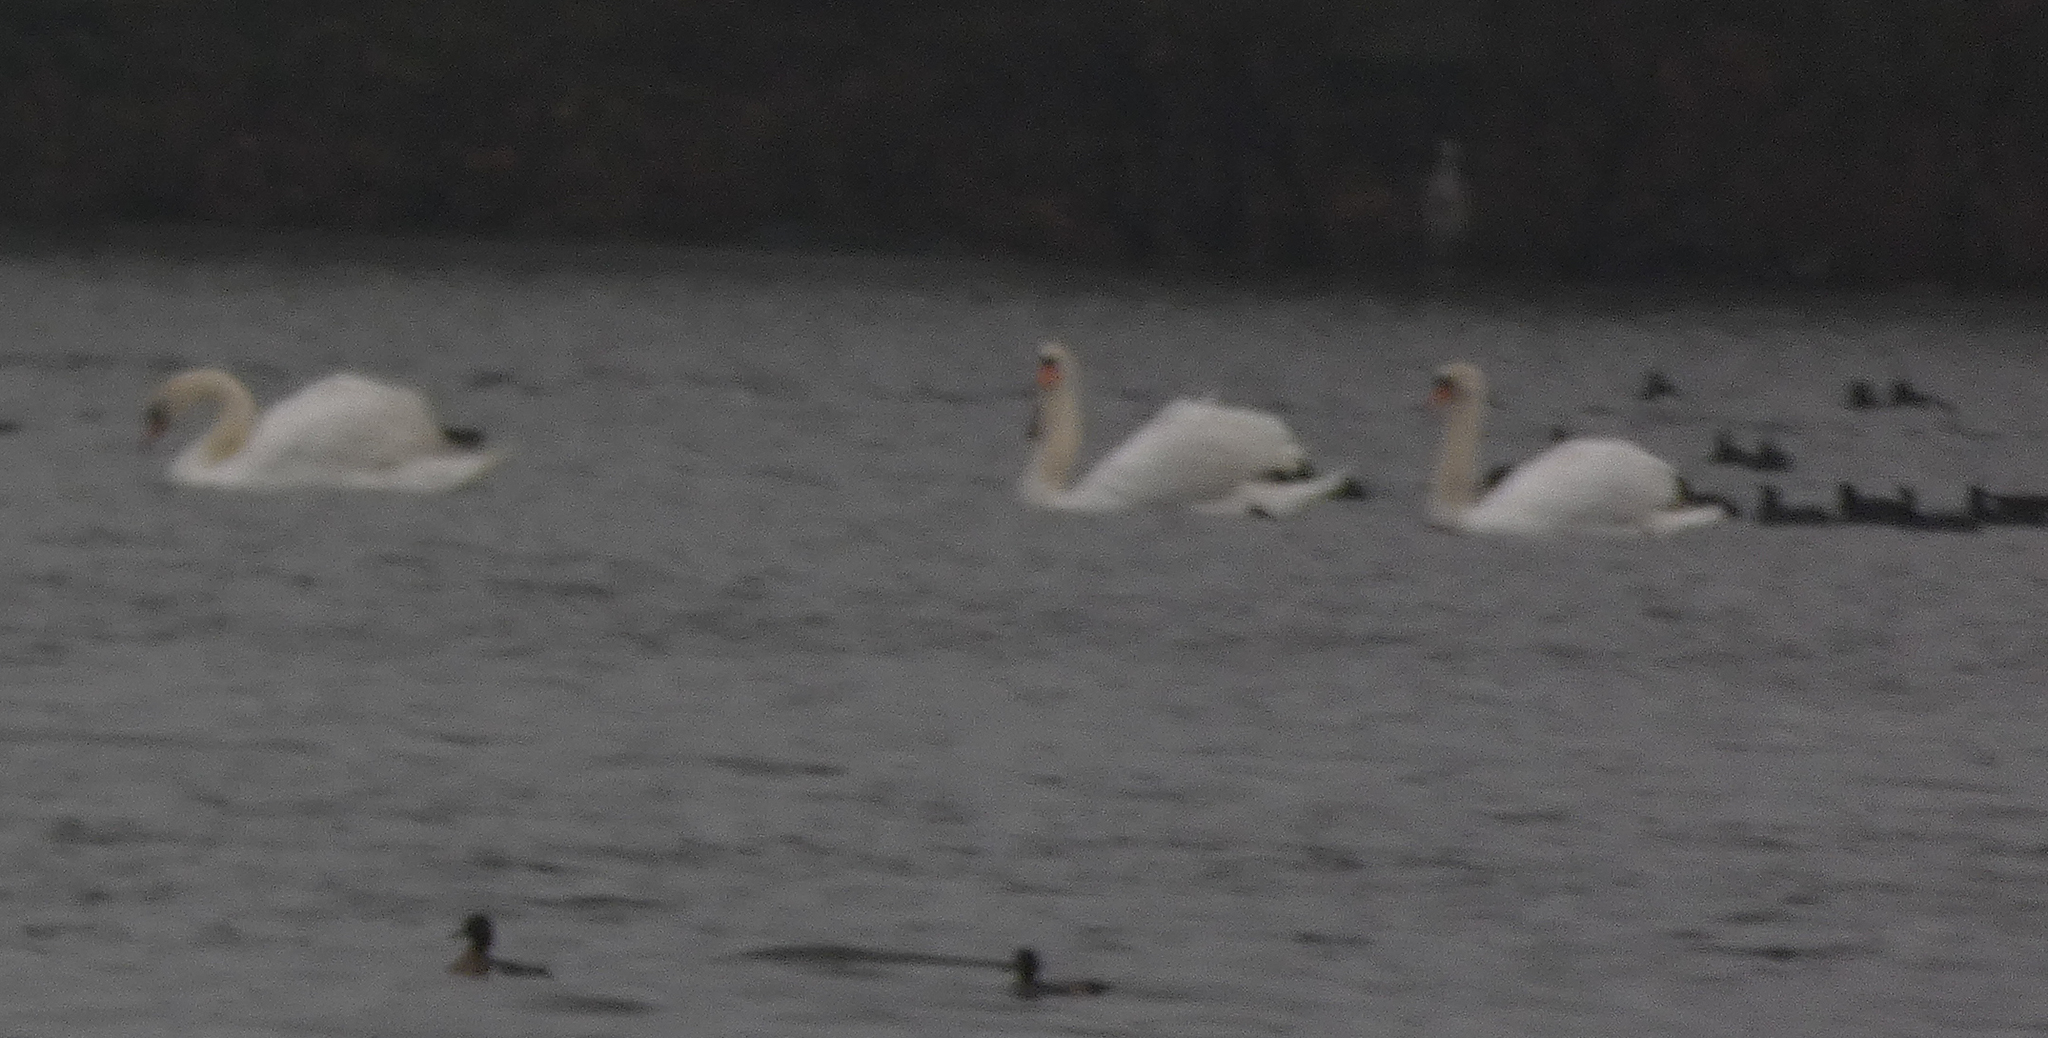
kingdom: Animalia
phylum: Chordata
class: Aves
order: Anseriformes
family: Anatidae
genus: Cygnus
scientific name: Cygnus olor
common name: Mute swan
